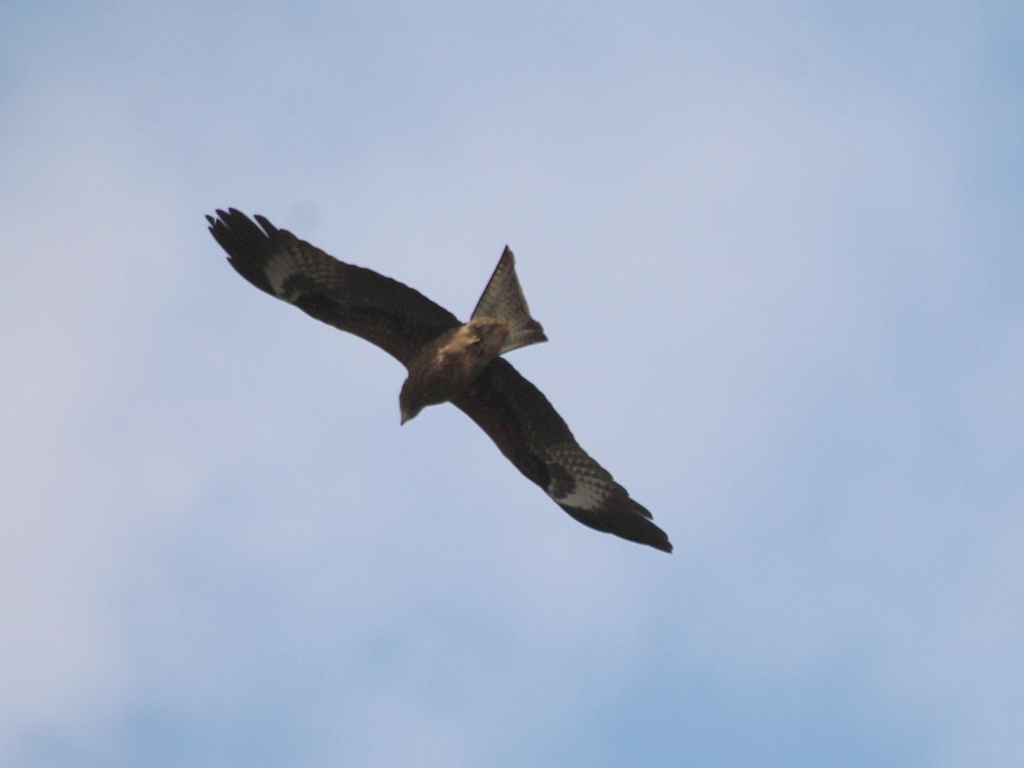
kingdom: Animalia
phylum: Chordata
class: Aves
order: Accipitriformes
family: Accipitridae
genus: Milvus
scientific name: Milvus migrans
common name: Black kite
